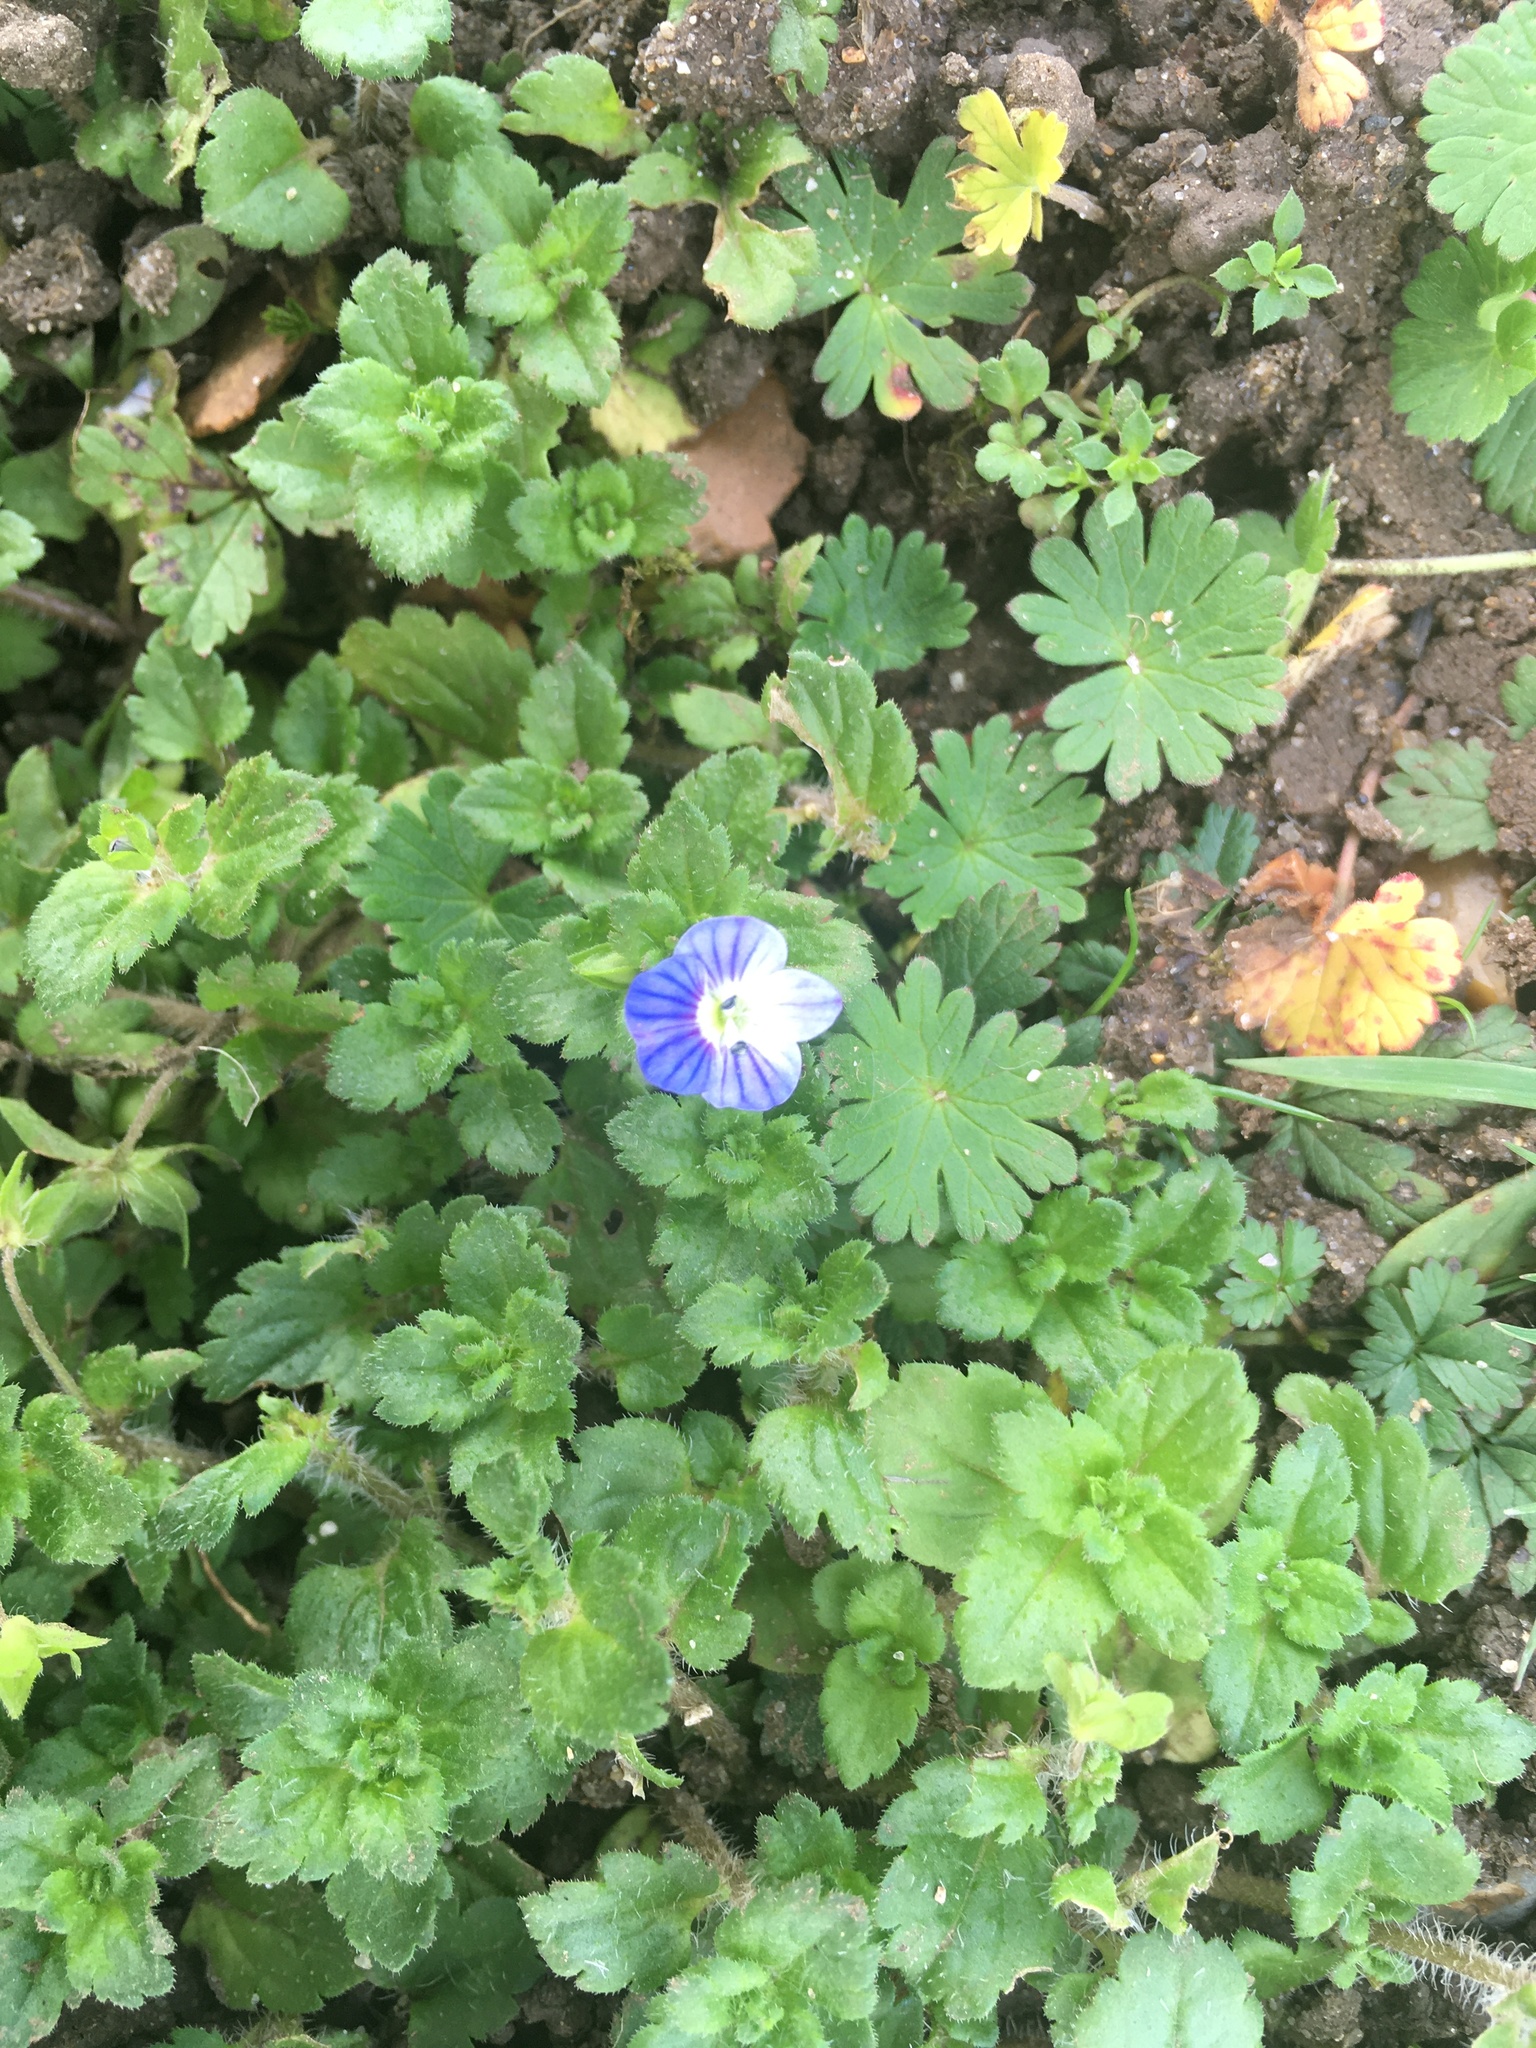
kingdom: Plantae
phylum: Tracheophyta
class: Magnoliopsida
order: Lamiales
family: Plantaginaceae
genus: Veronica
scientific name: Veronica persica
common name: Common field-speedwell
